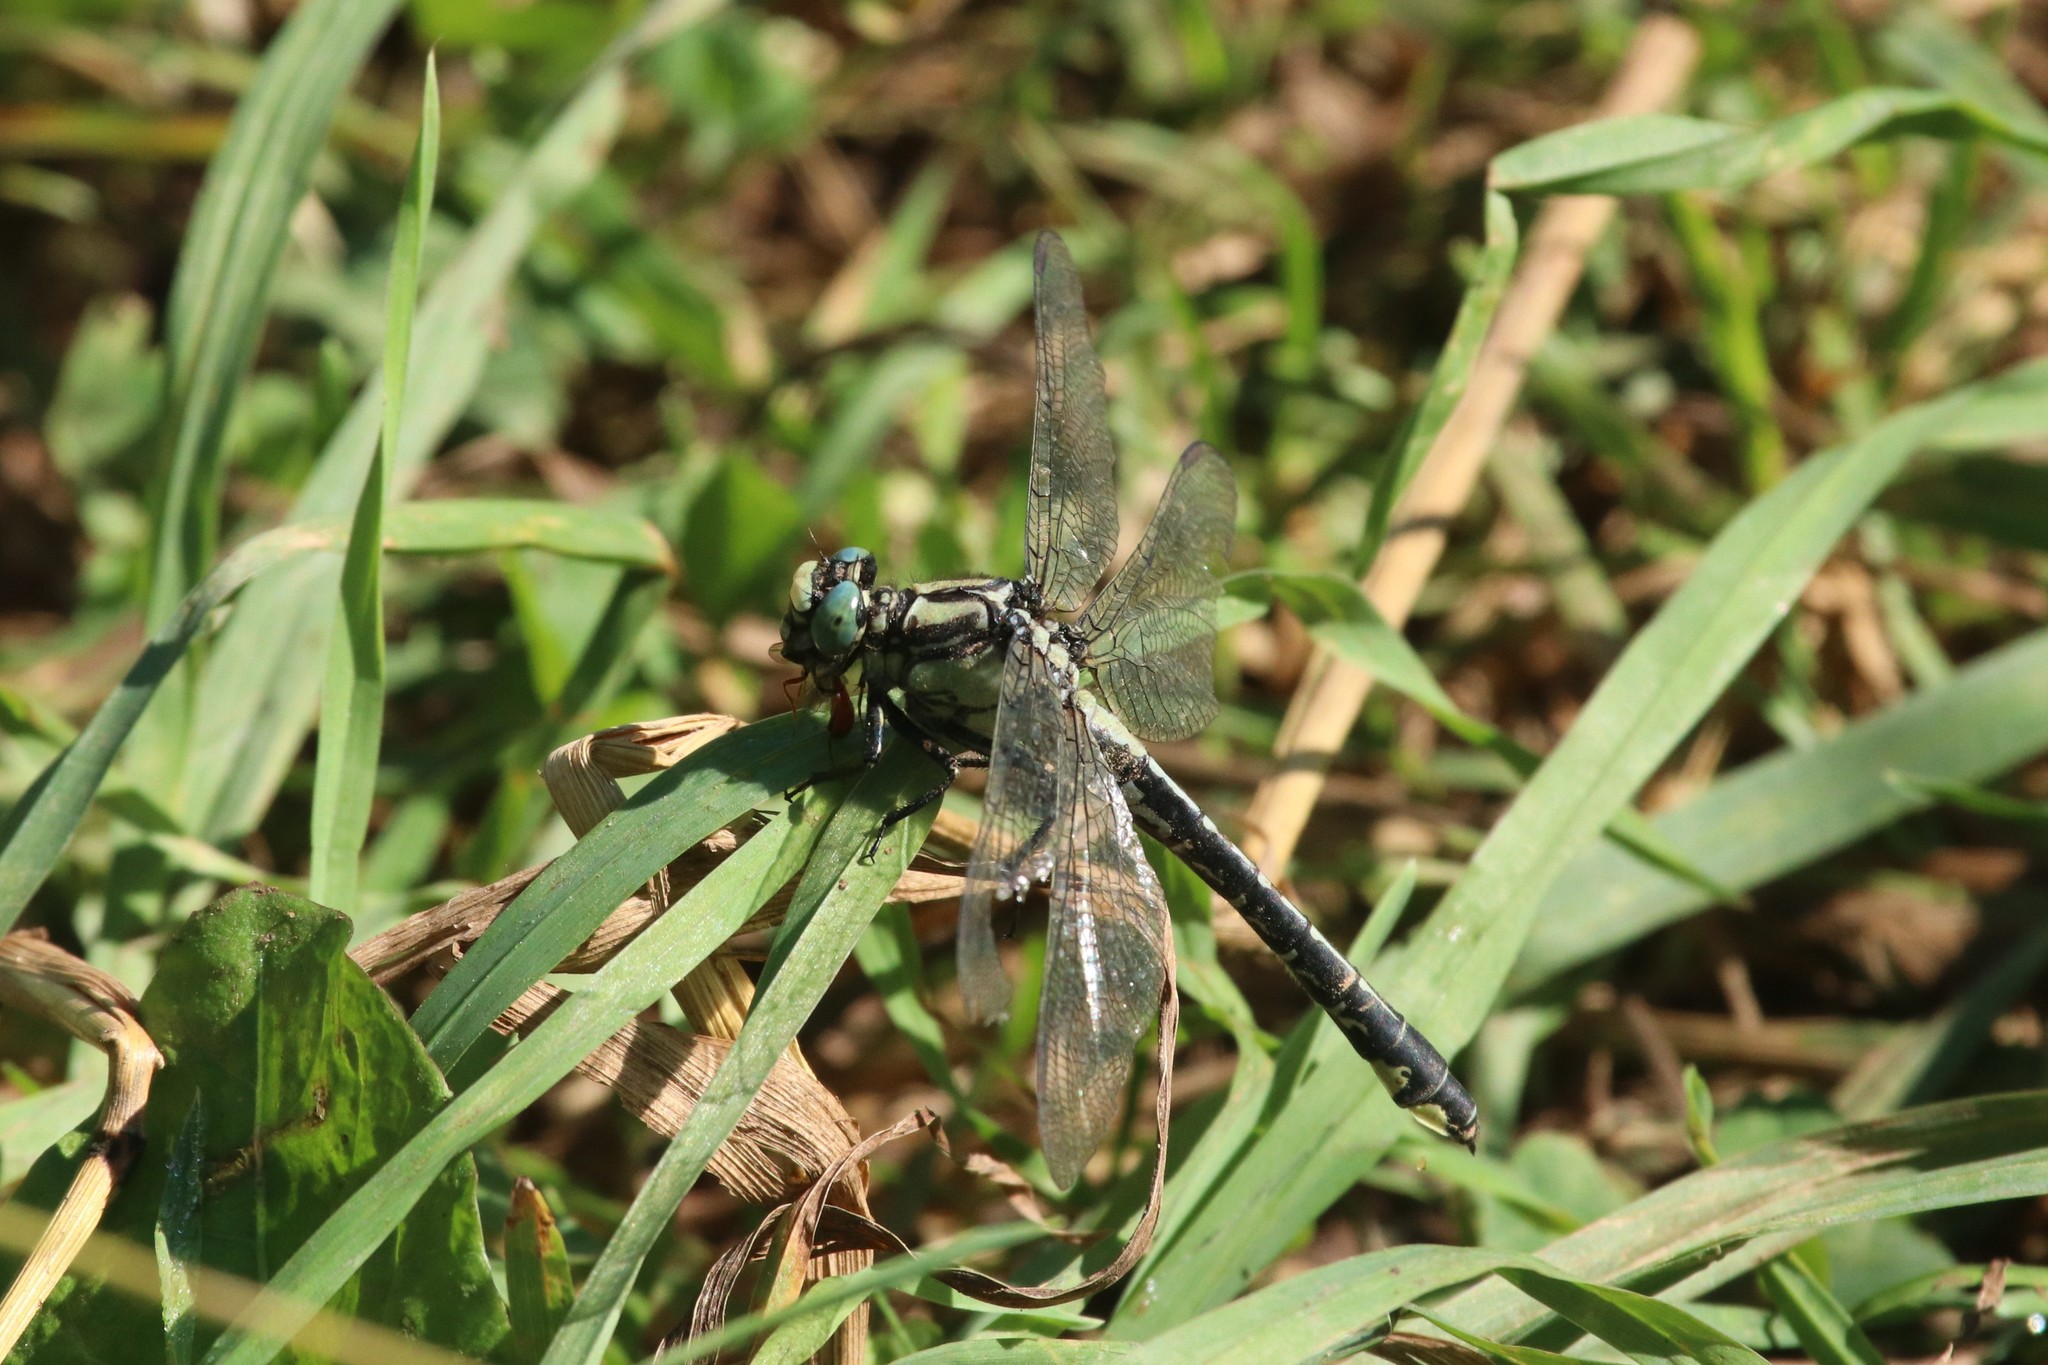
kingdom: Animalia
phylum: Arthropoda
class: Insecta
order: Odonata
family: Gomphidae
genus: Gomphus
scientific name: Gomphus vulgatissimus
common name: Club-tailed dragonfly
